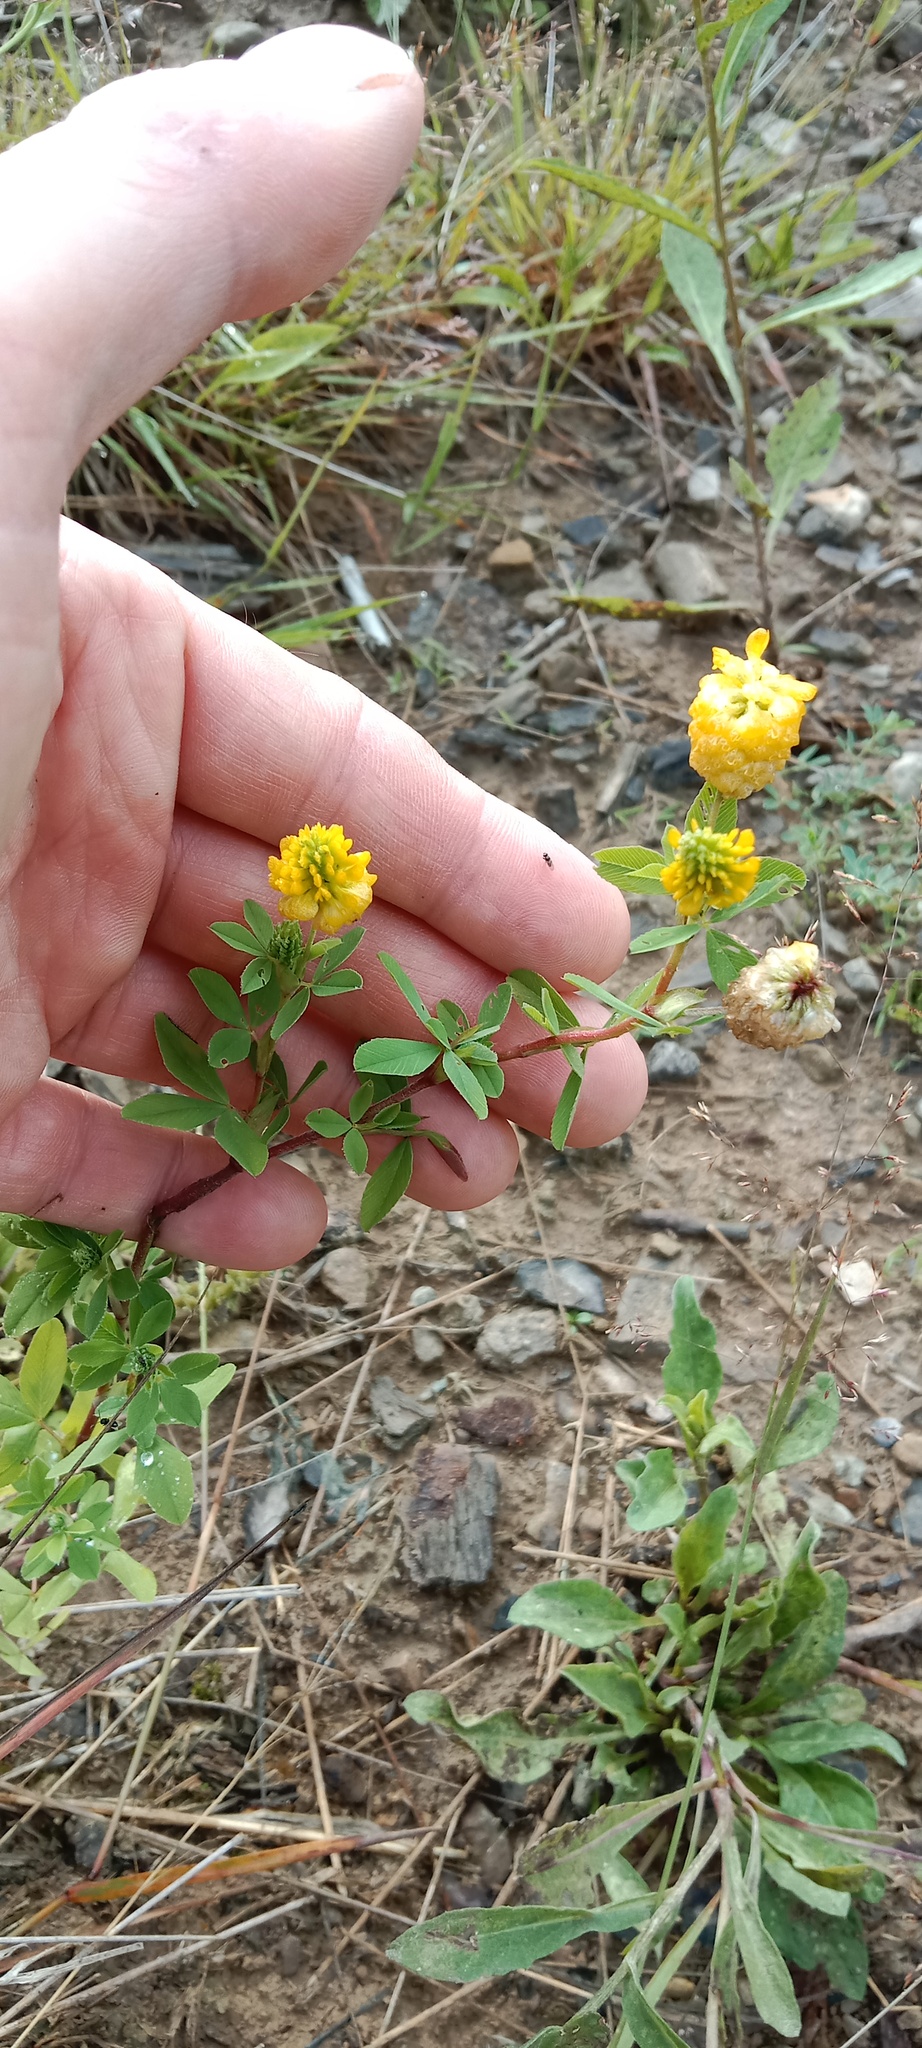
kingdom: Plantae
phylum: Tracheophyta
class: Magnoliopsida
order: Fabales
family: Fabaceae
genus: Trifolium
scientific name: Trifolium aureum
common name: Golden clover
